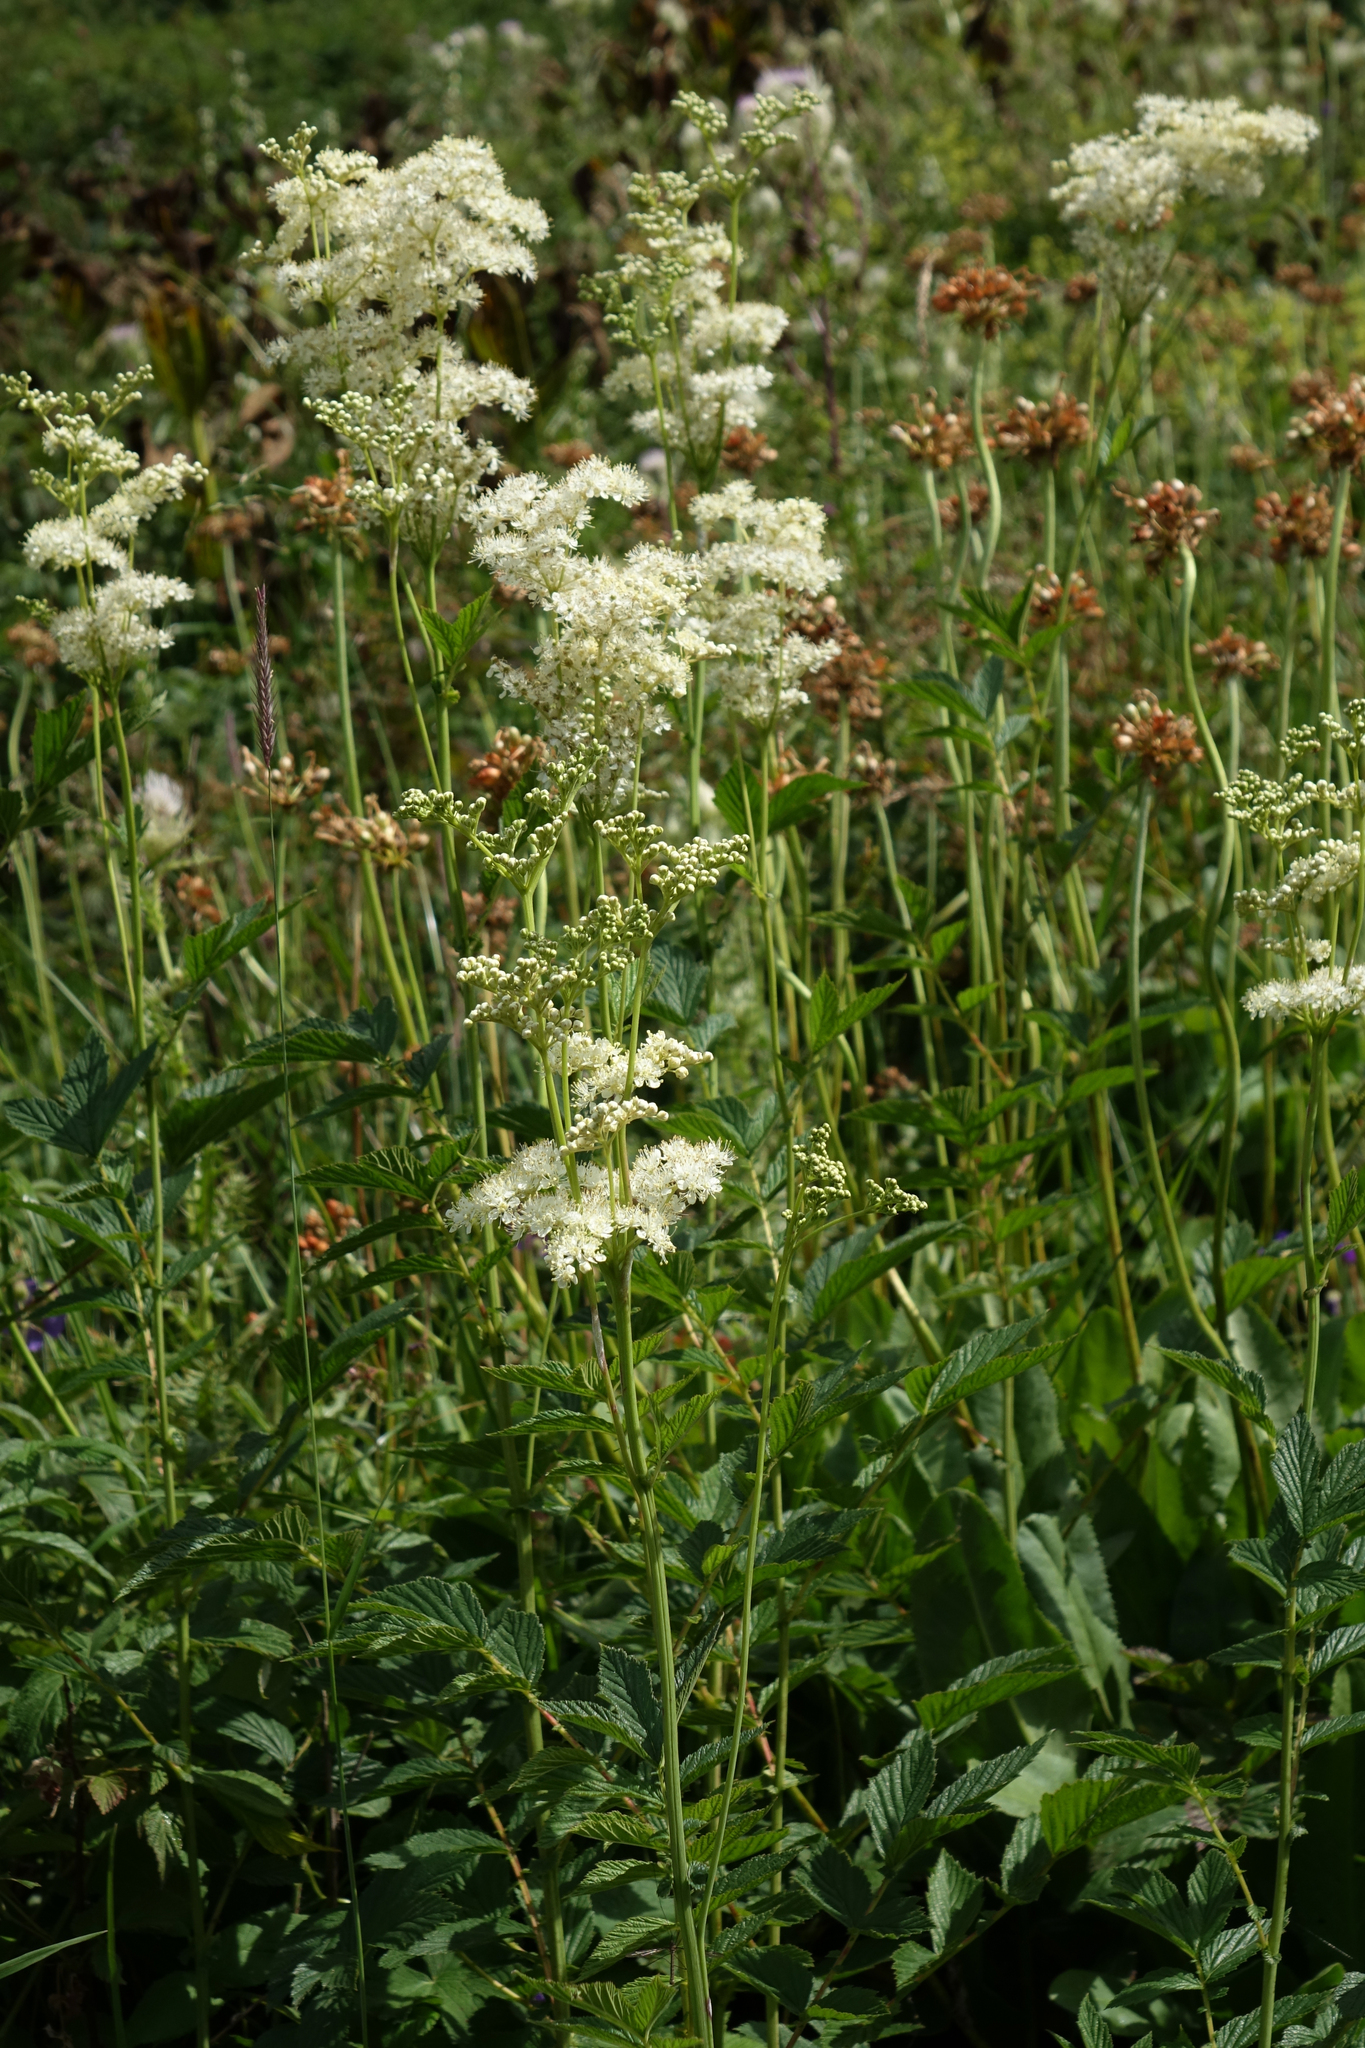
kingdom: Plantae
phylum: Tracheophyta
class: Magnoliopsida
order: Rosales
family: Rosaceae
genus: Filipendula
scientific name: Filipendula ulmaria
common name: Meadowsweet
